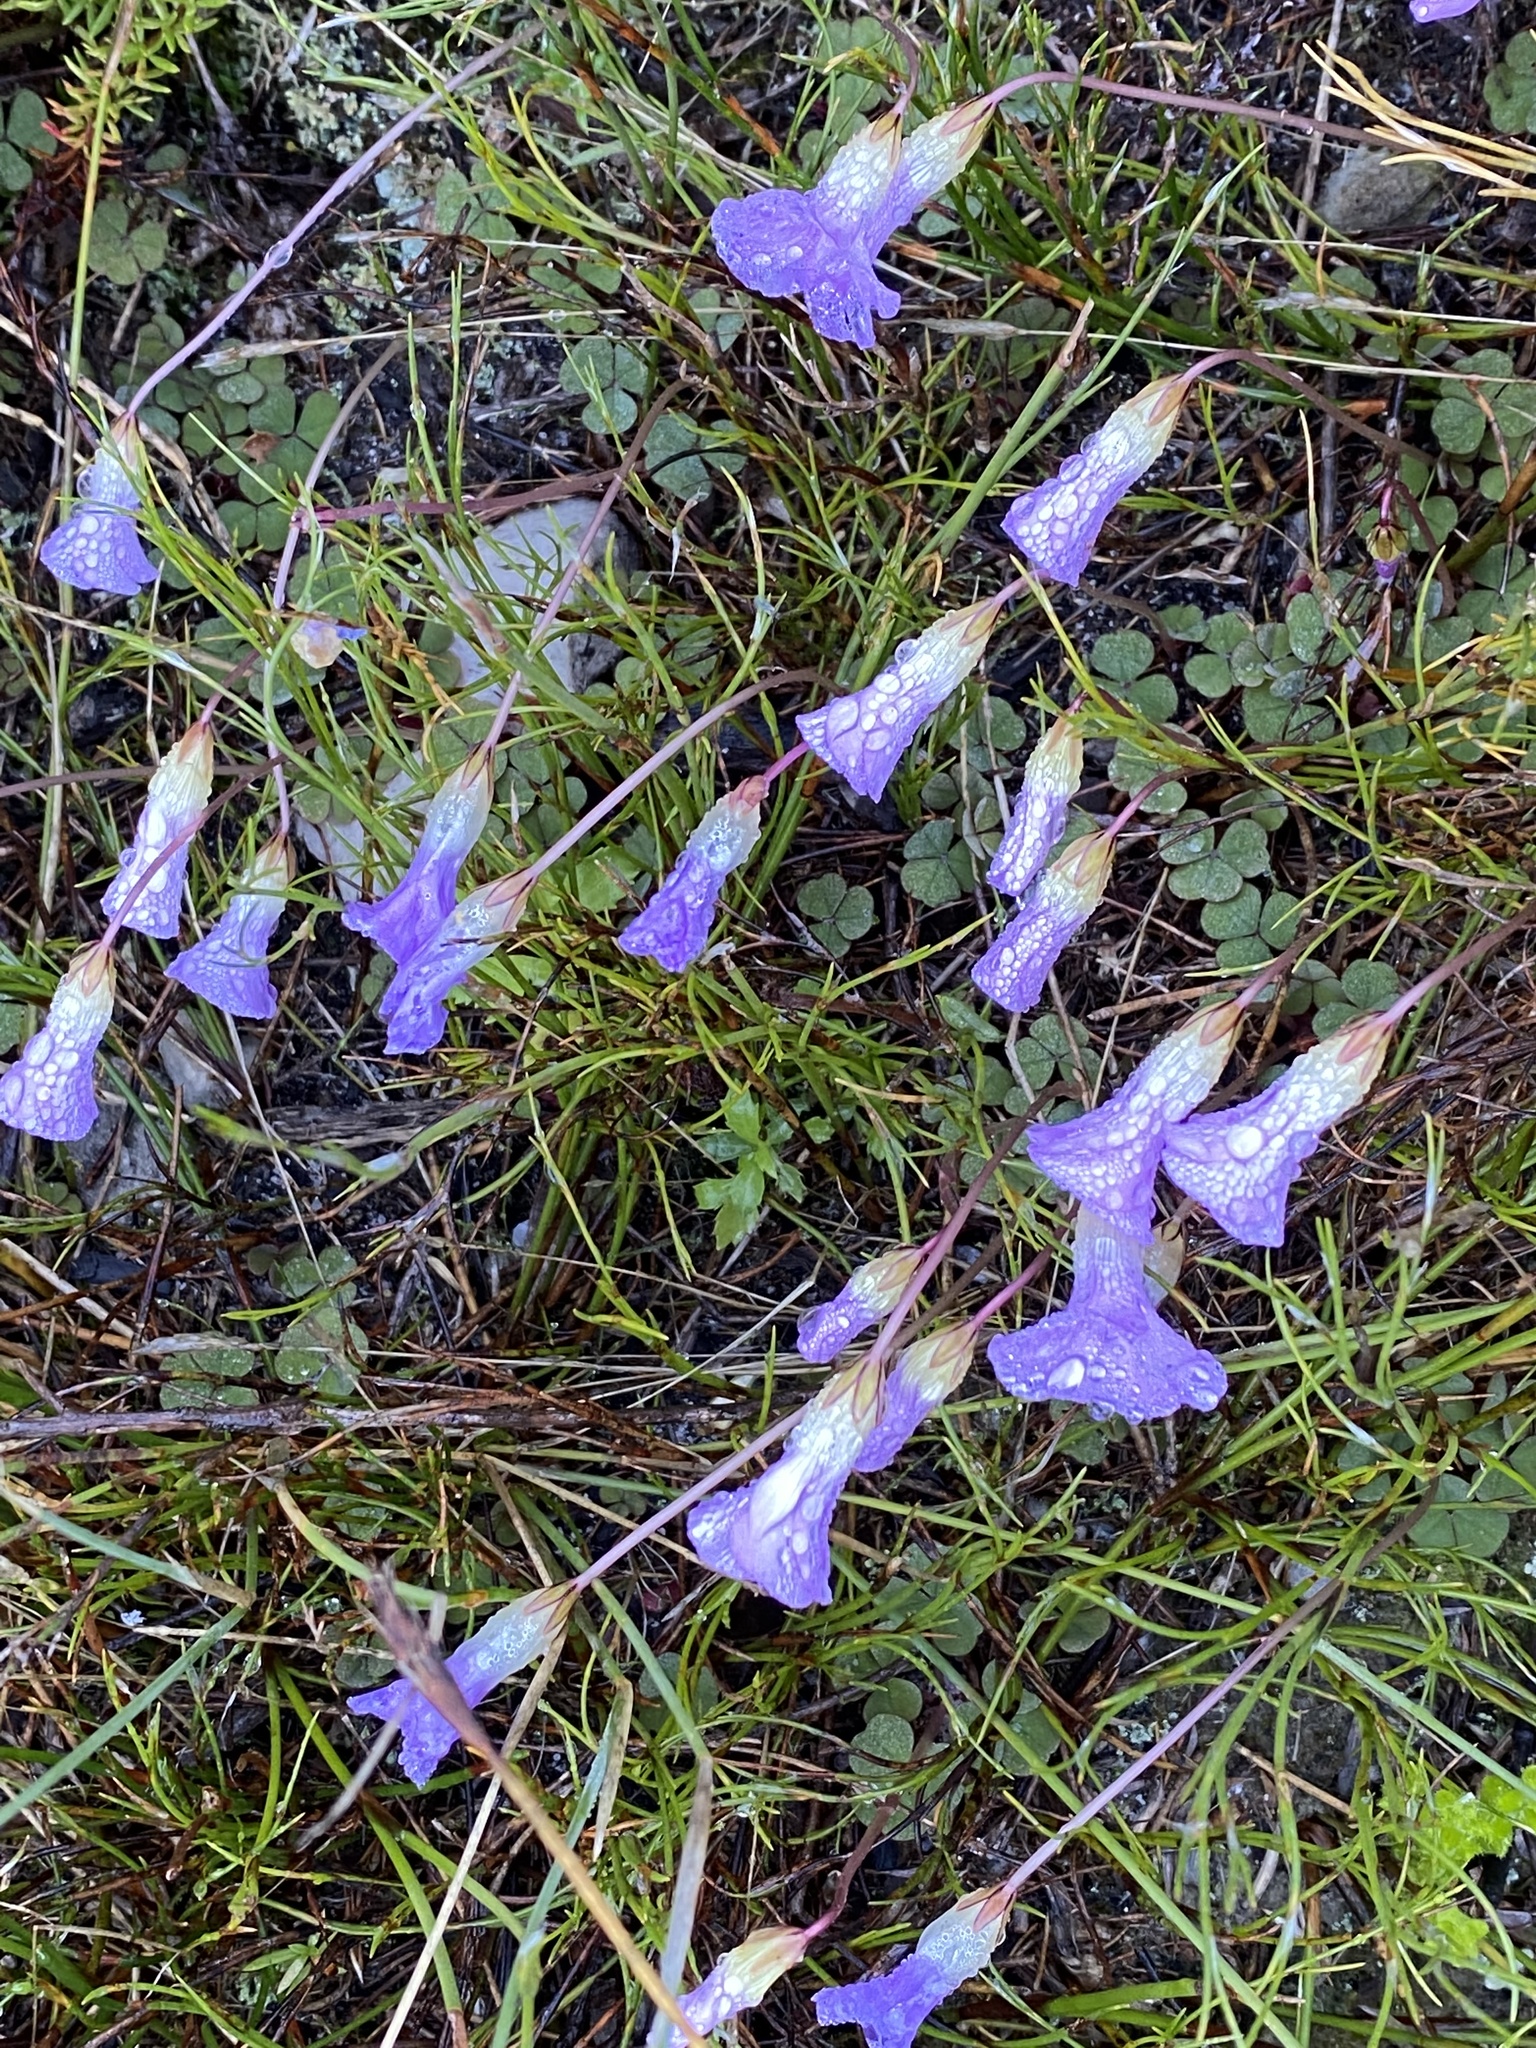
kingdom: Plantae
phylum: Tracheophyta
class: Magnoliopsida
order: Oxalidales
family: Oxalidaceae
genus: Oxalis
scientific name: Oxalis commutata
